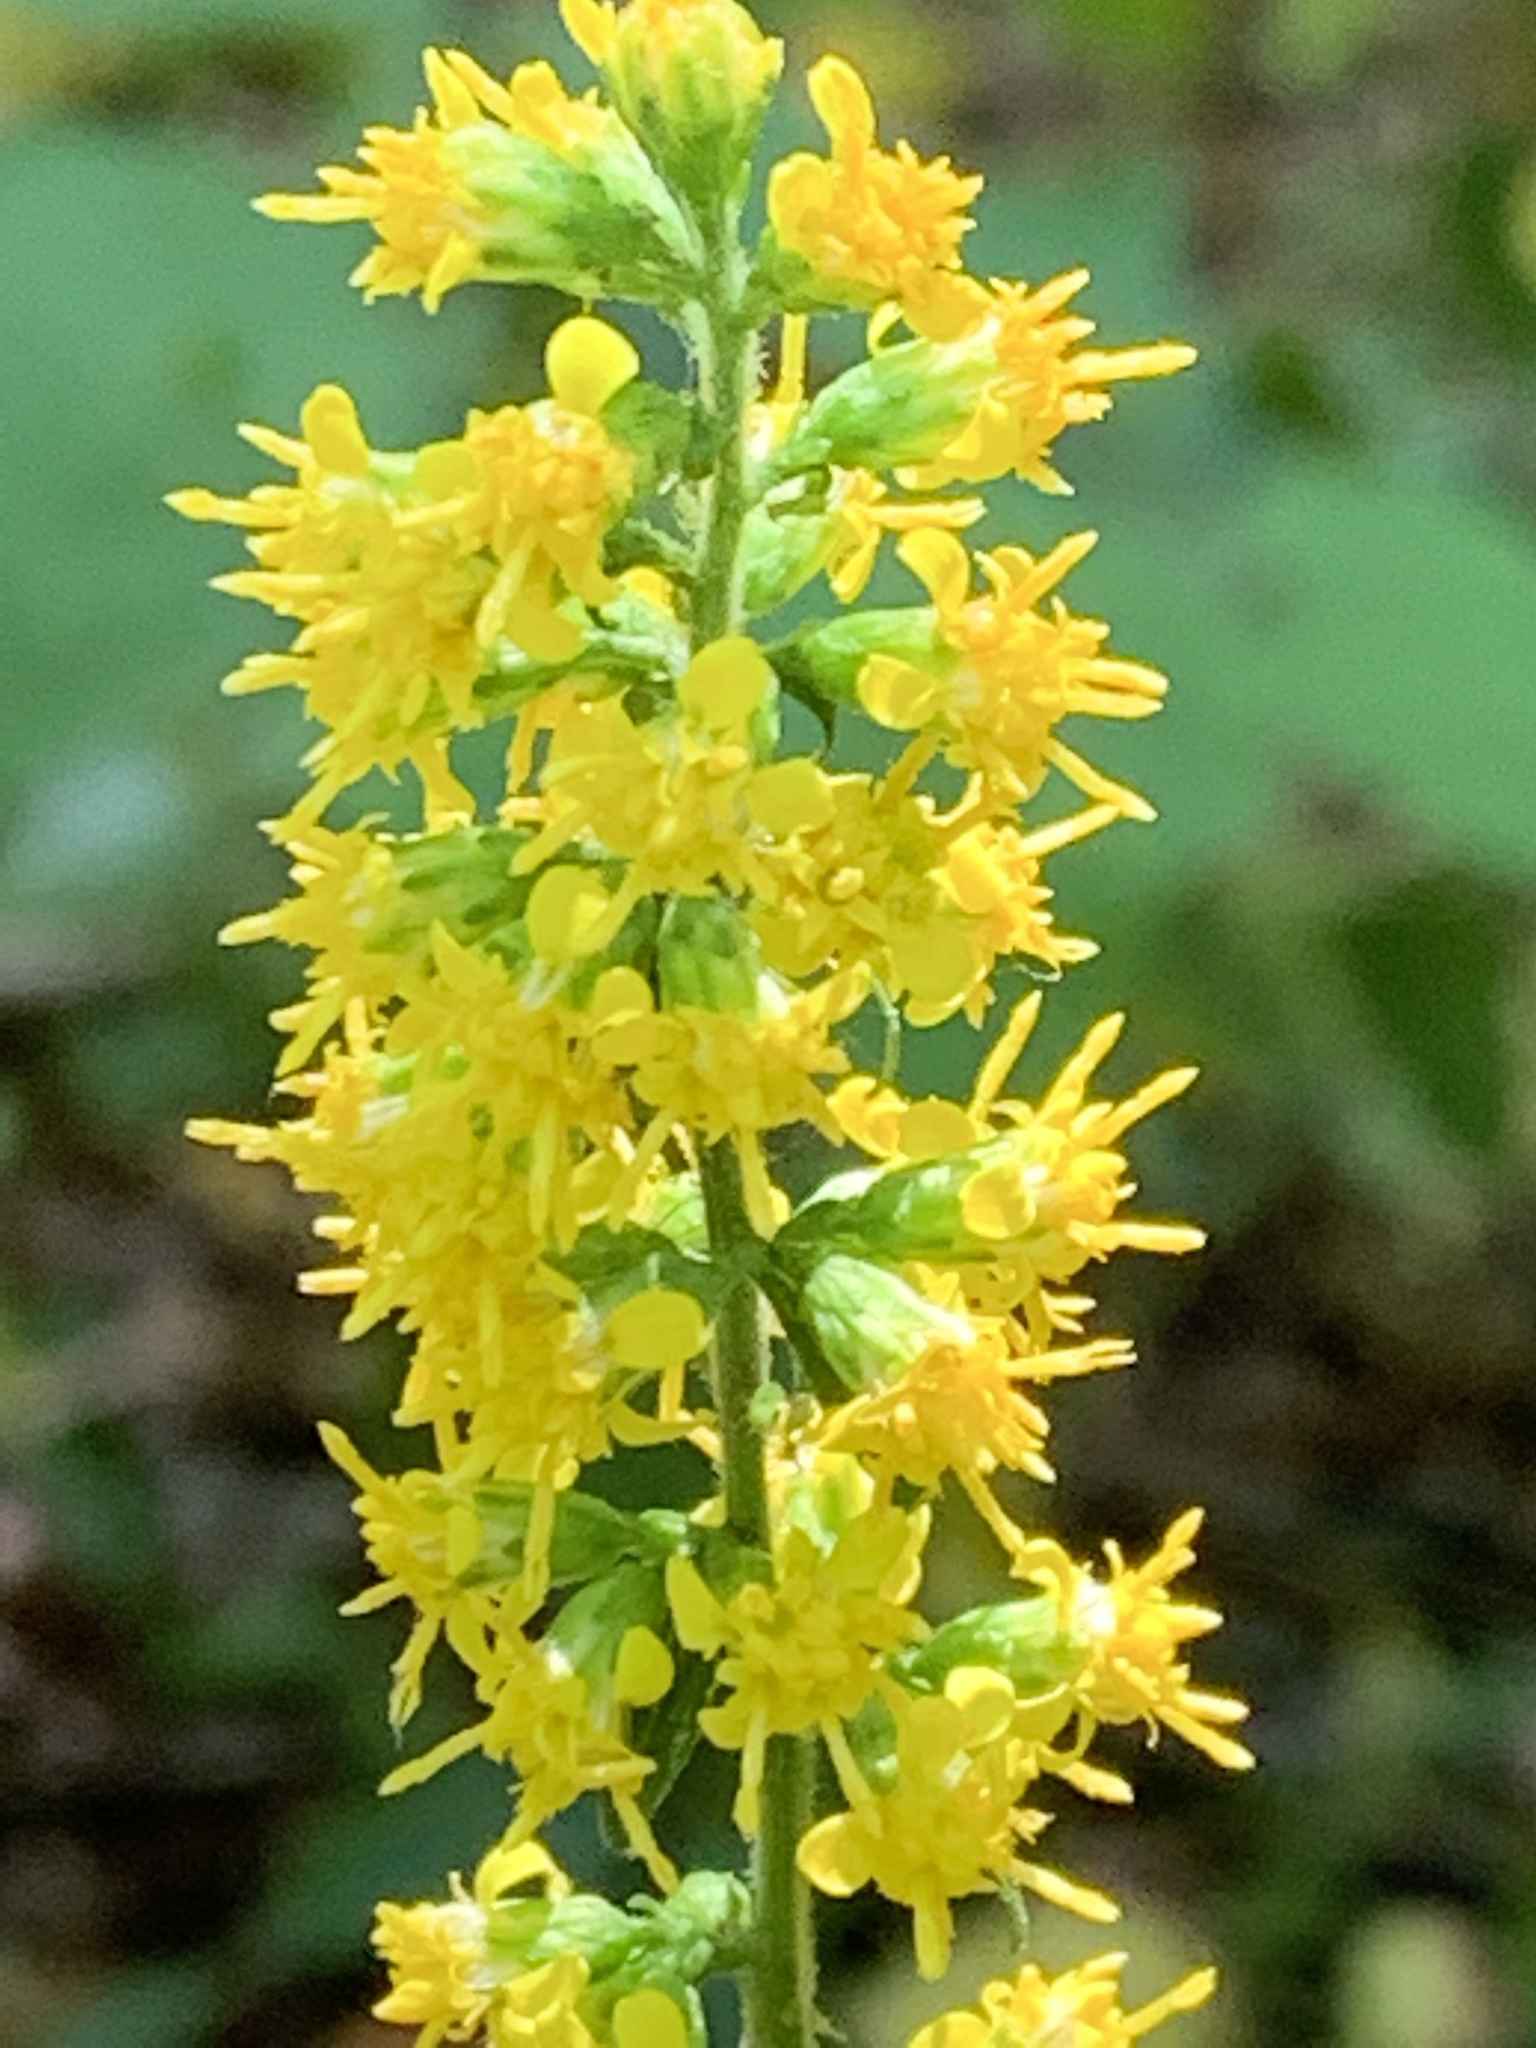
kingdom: Plantae
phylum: Tracheophyta
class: Magnoliopsida
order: Asterales
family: Asteraceae
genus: Solidago
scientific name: Solidago flexicaulis
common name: Zig-zag goldenrod
